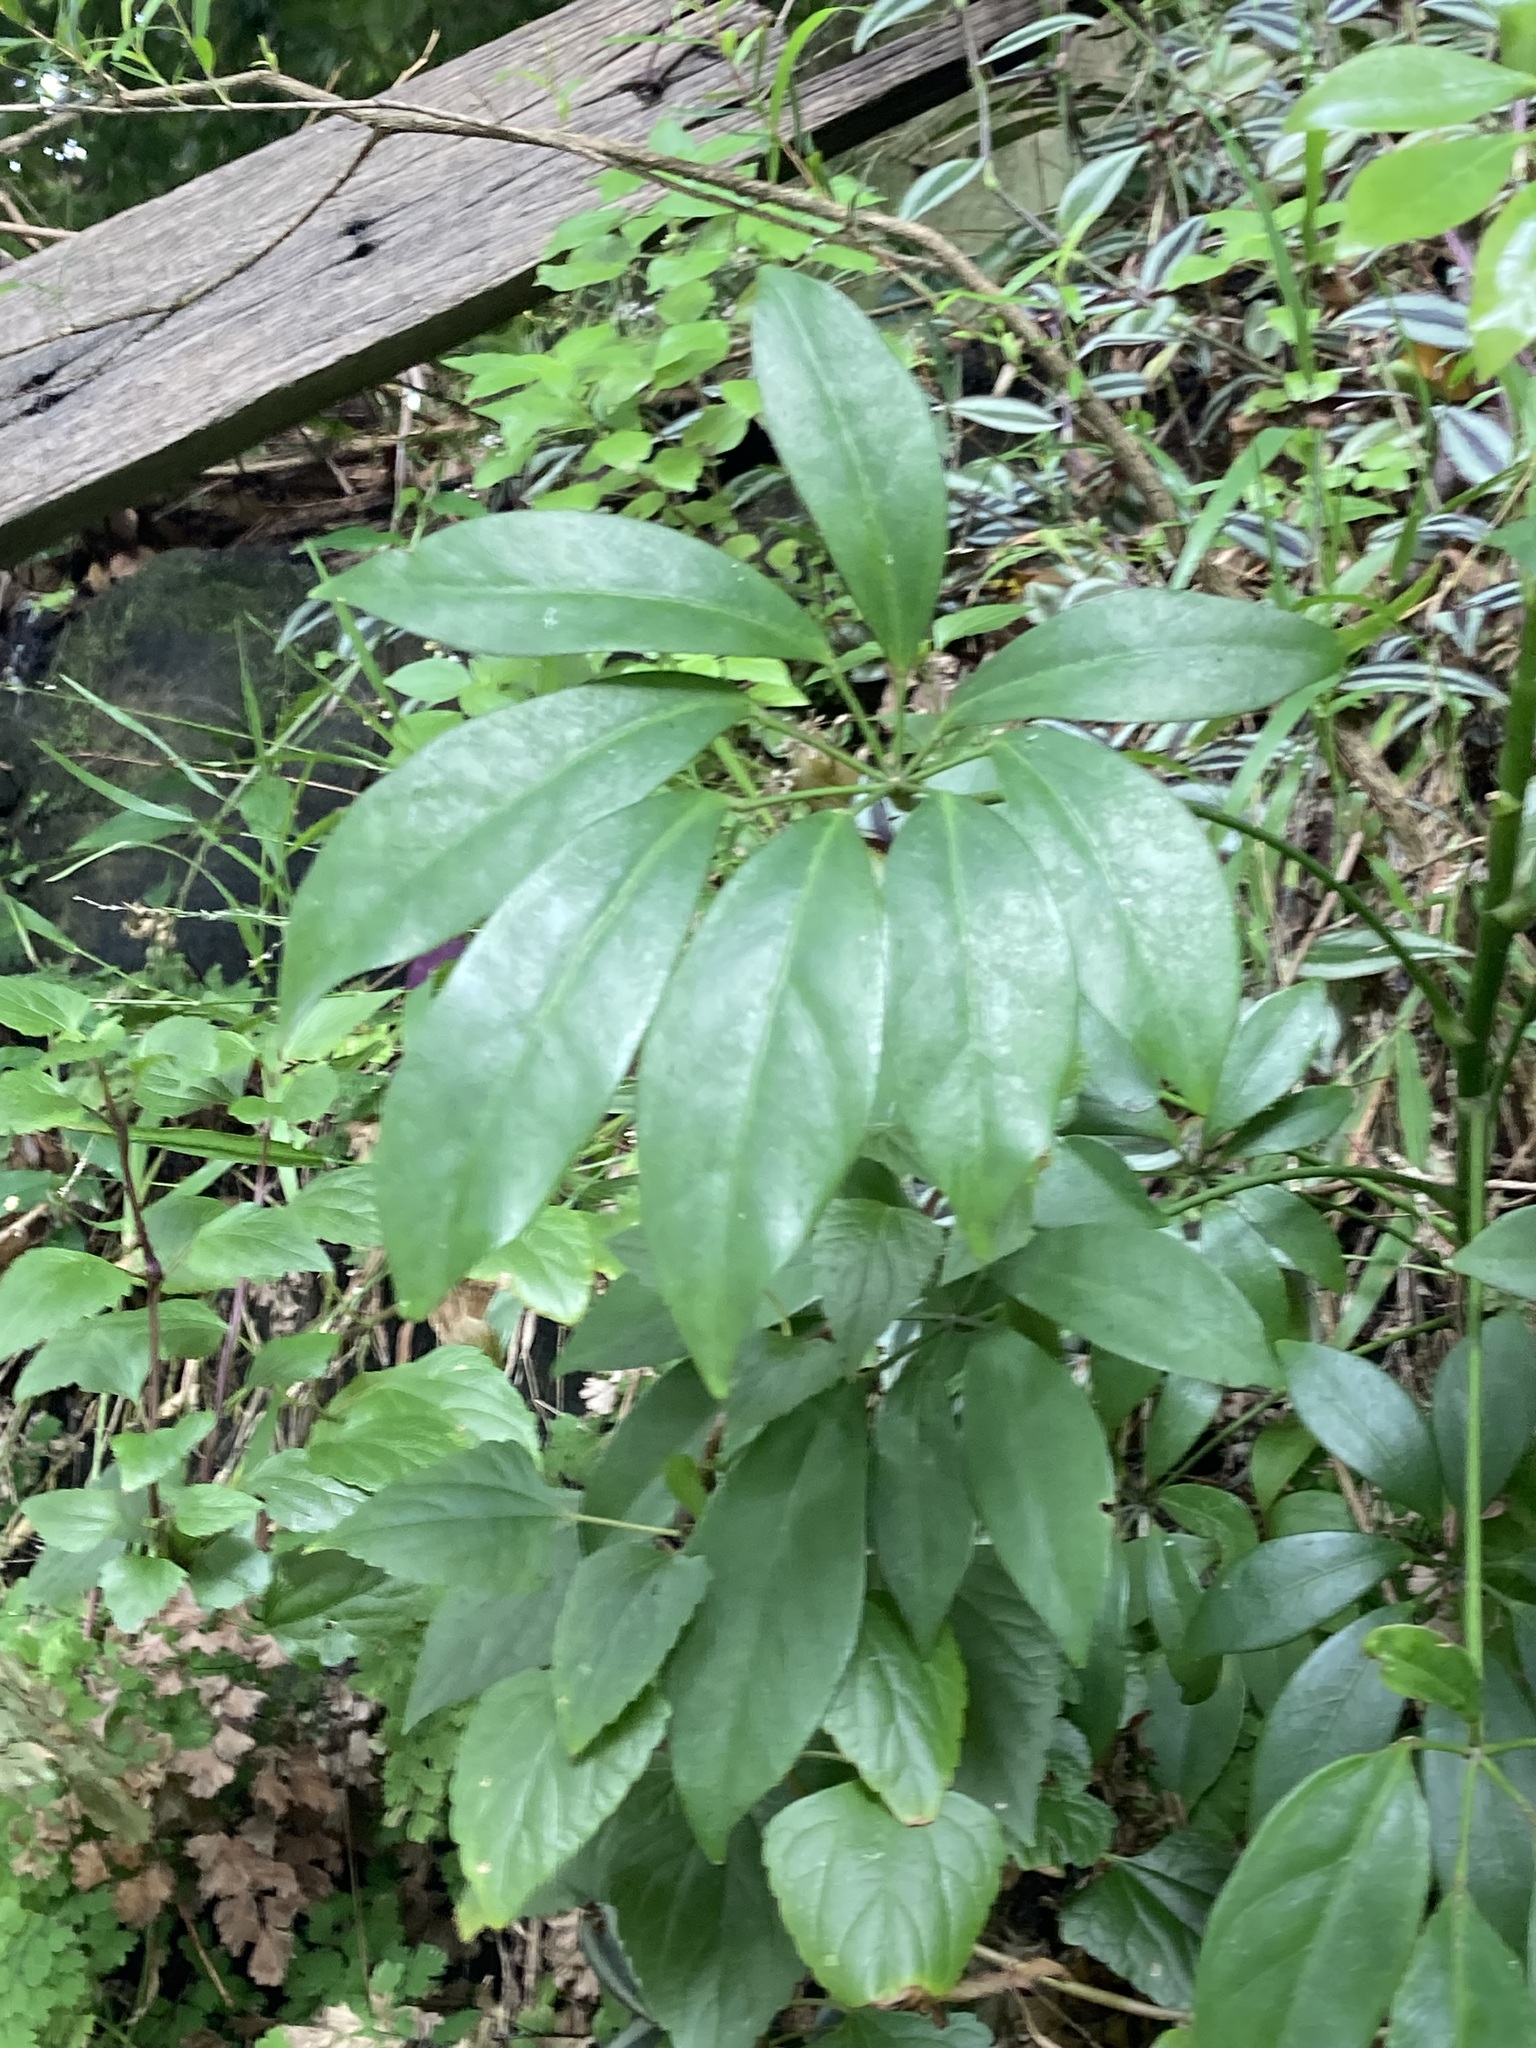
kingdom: Plantae
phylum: Tracheophyta
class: Magnoliopsida
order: Apiales
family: Araliaceae
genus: Heptapleurum
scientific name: Heptapleurum arboricola
